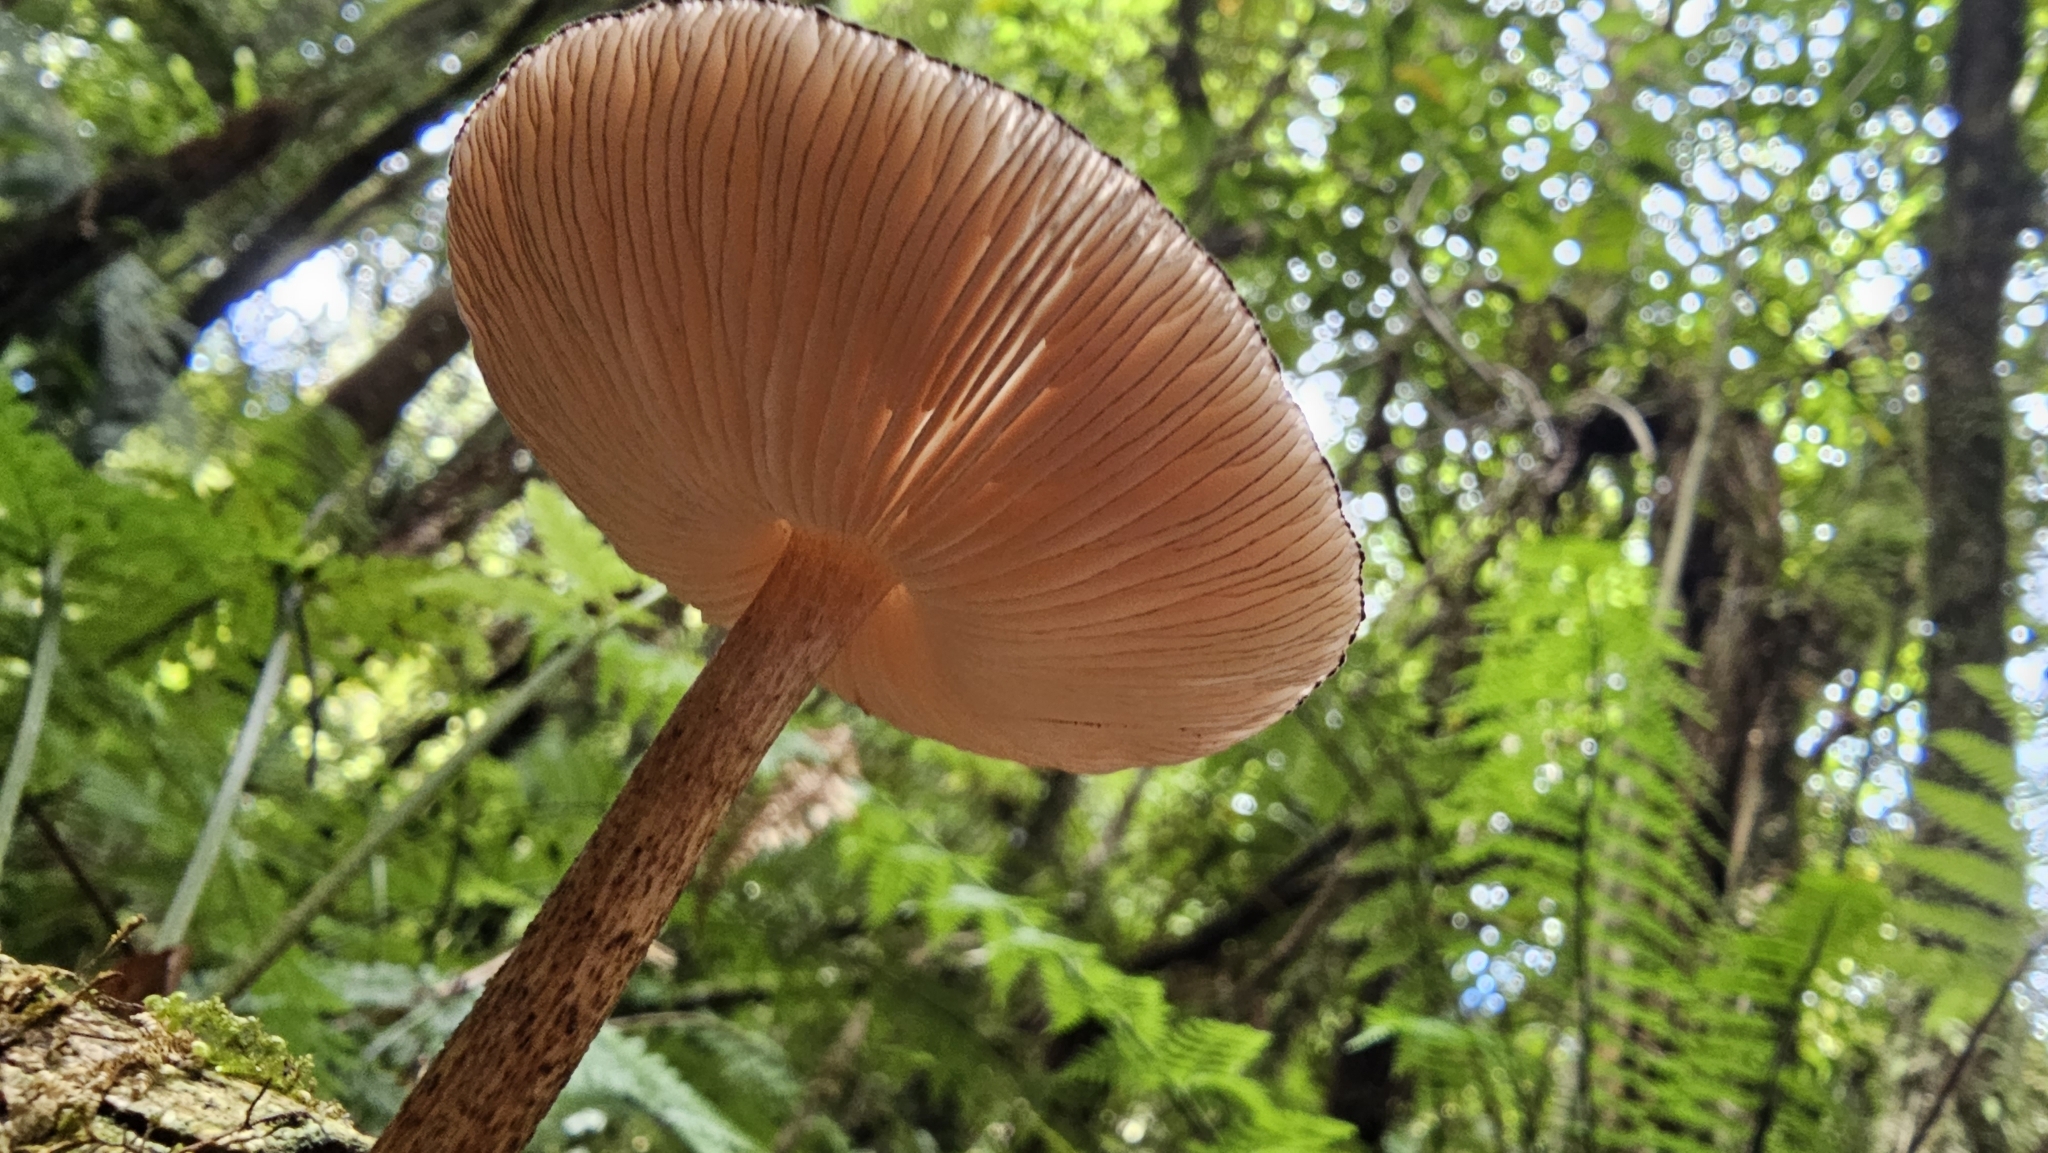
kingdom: Fungi
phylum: Basidiomycota
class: Agaricomycetes
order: Agaricales
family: Pluteaceae
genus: Pluteus
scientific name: Pluteus perroseus
